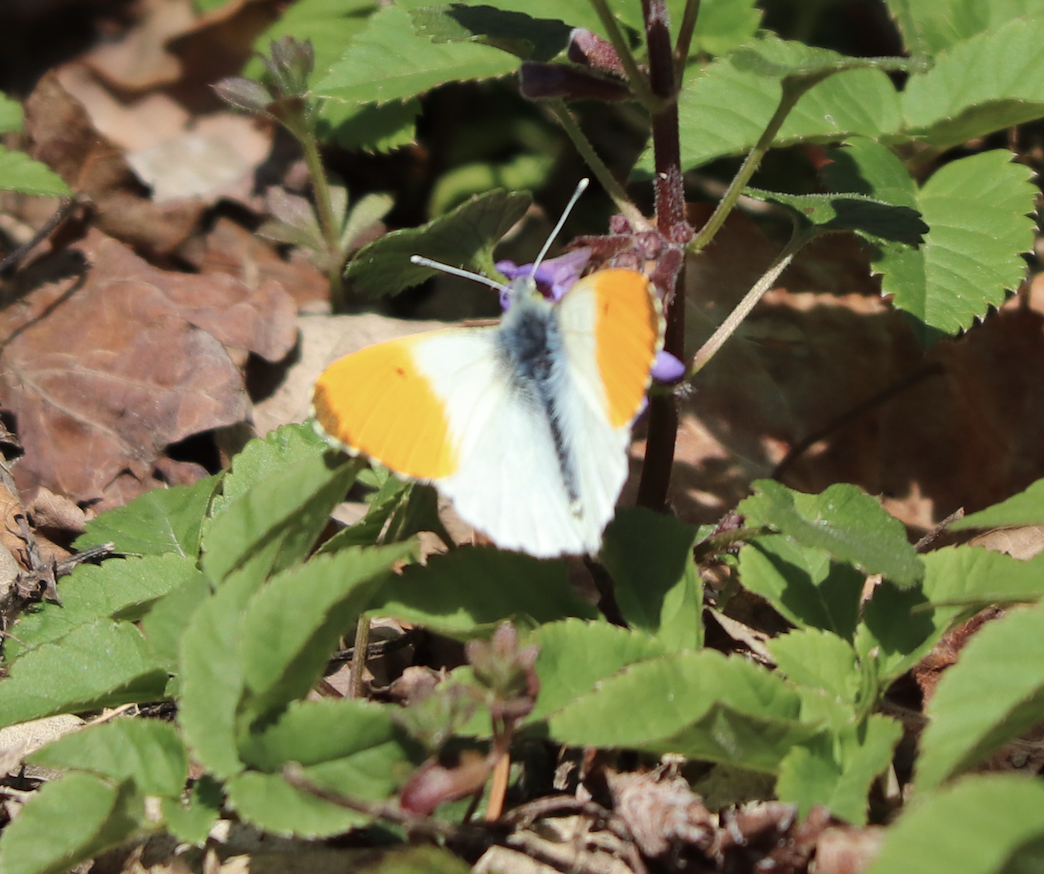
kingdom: Animalia
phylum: Arthropoda
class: Insecta
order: Lepidoptera
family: Pieridae
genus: Anthocharis
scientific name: Anthocharis cardamines
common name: Orange-tip
